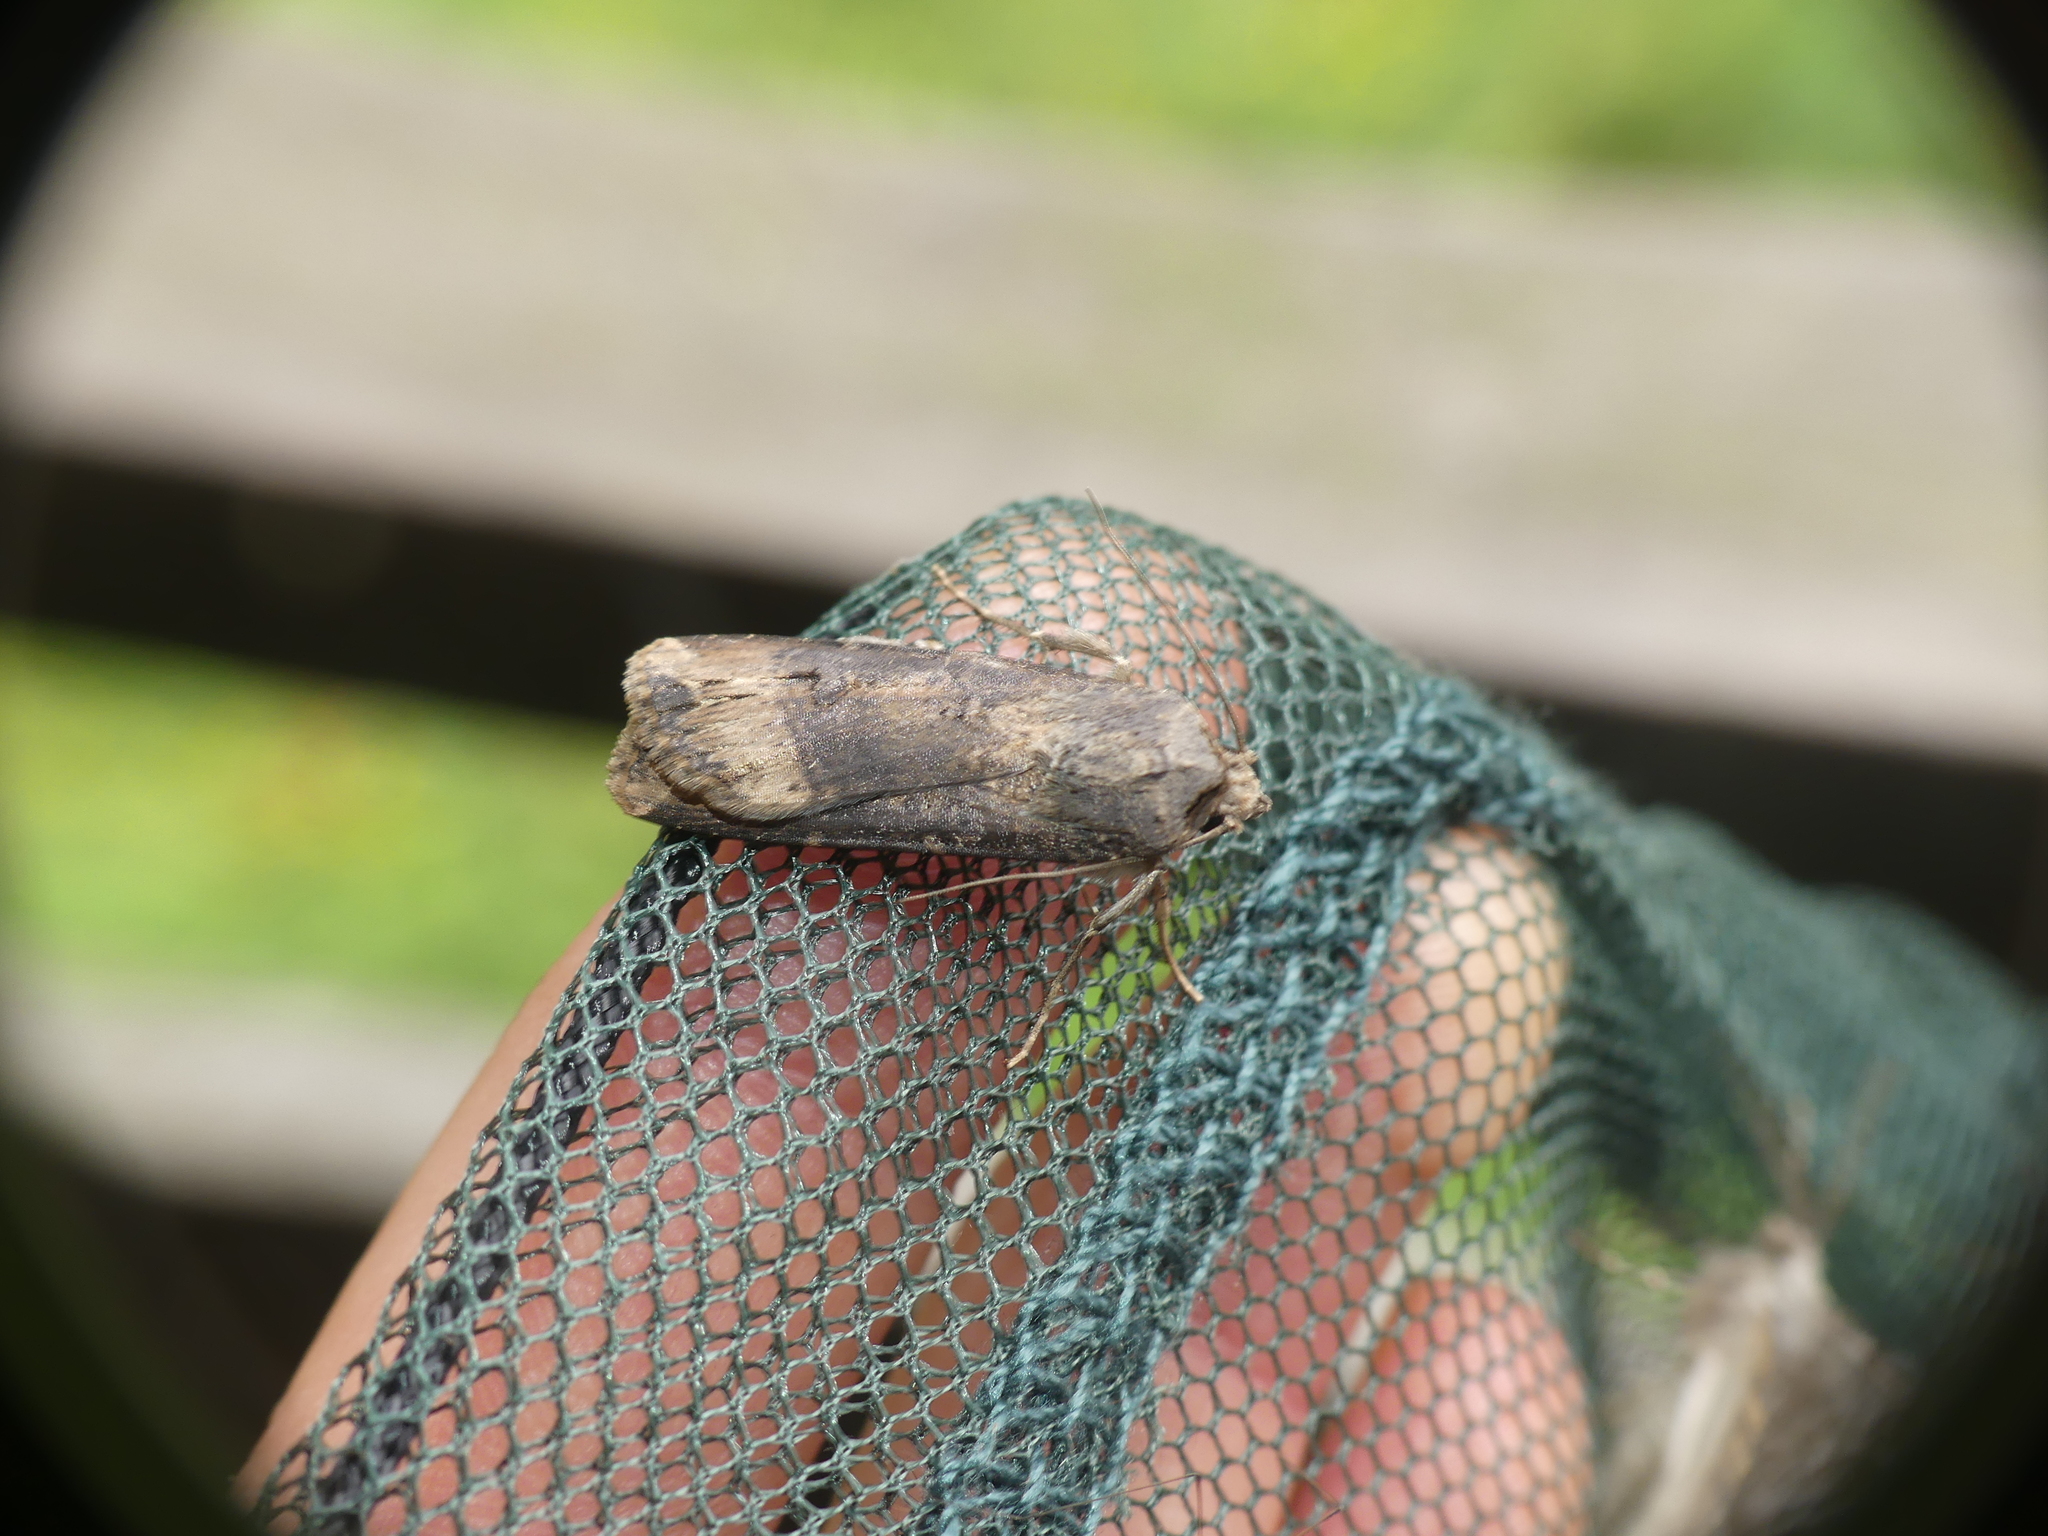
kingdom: Animalia
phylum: Arthropoda
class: Insecta
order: Lepidoptera
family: Noctuidae
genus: Agrotis
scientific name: Agrotis ipsilon
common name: Dark sword-grass
